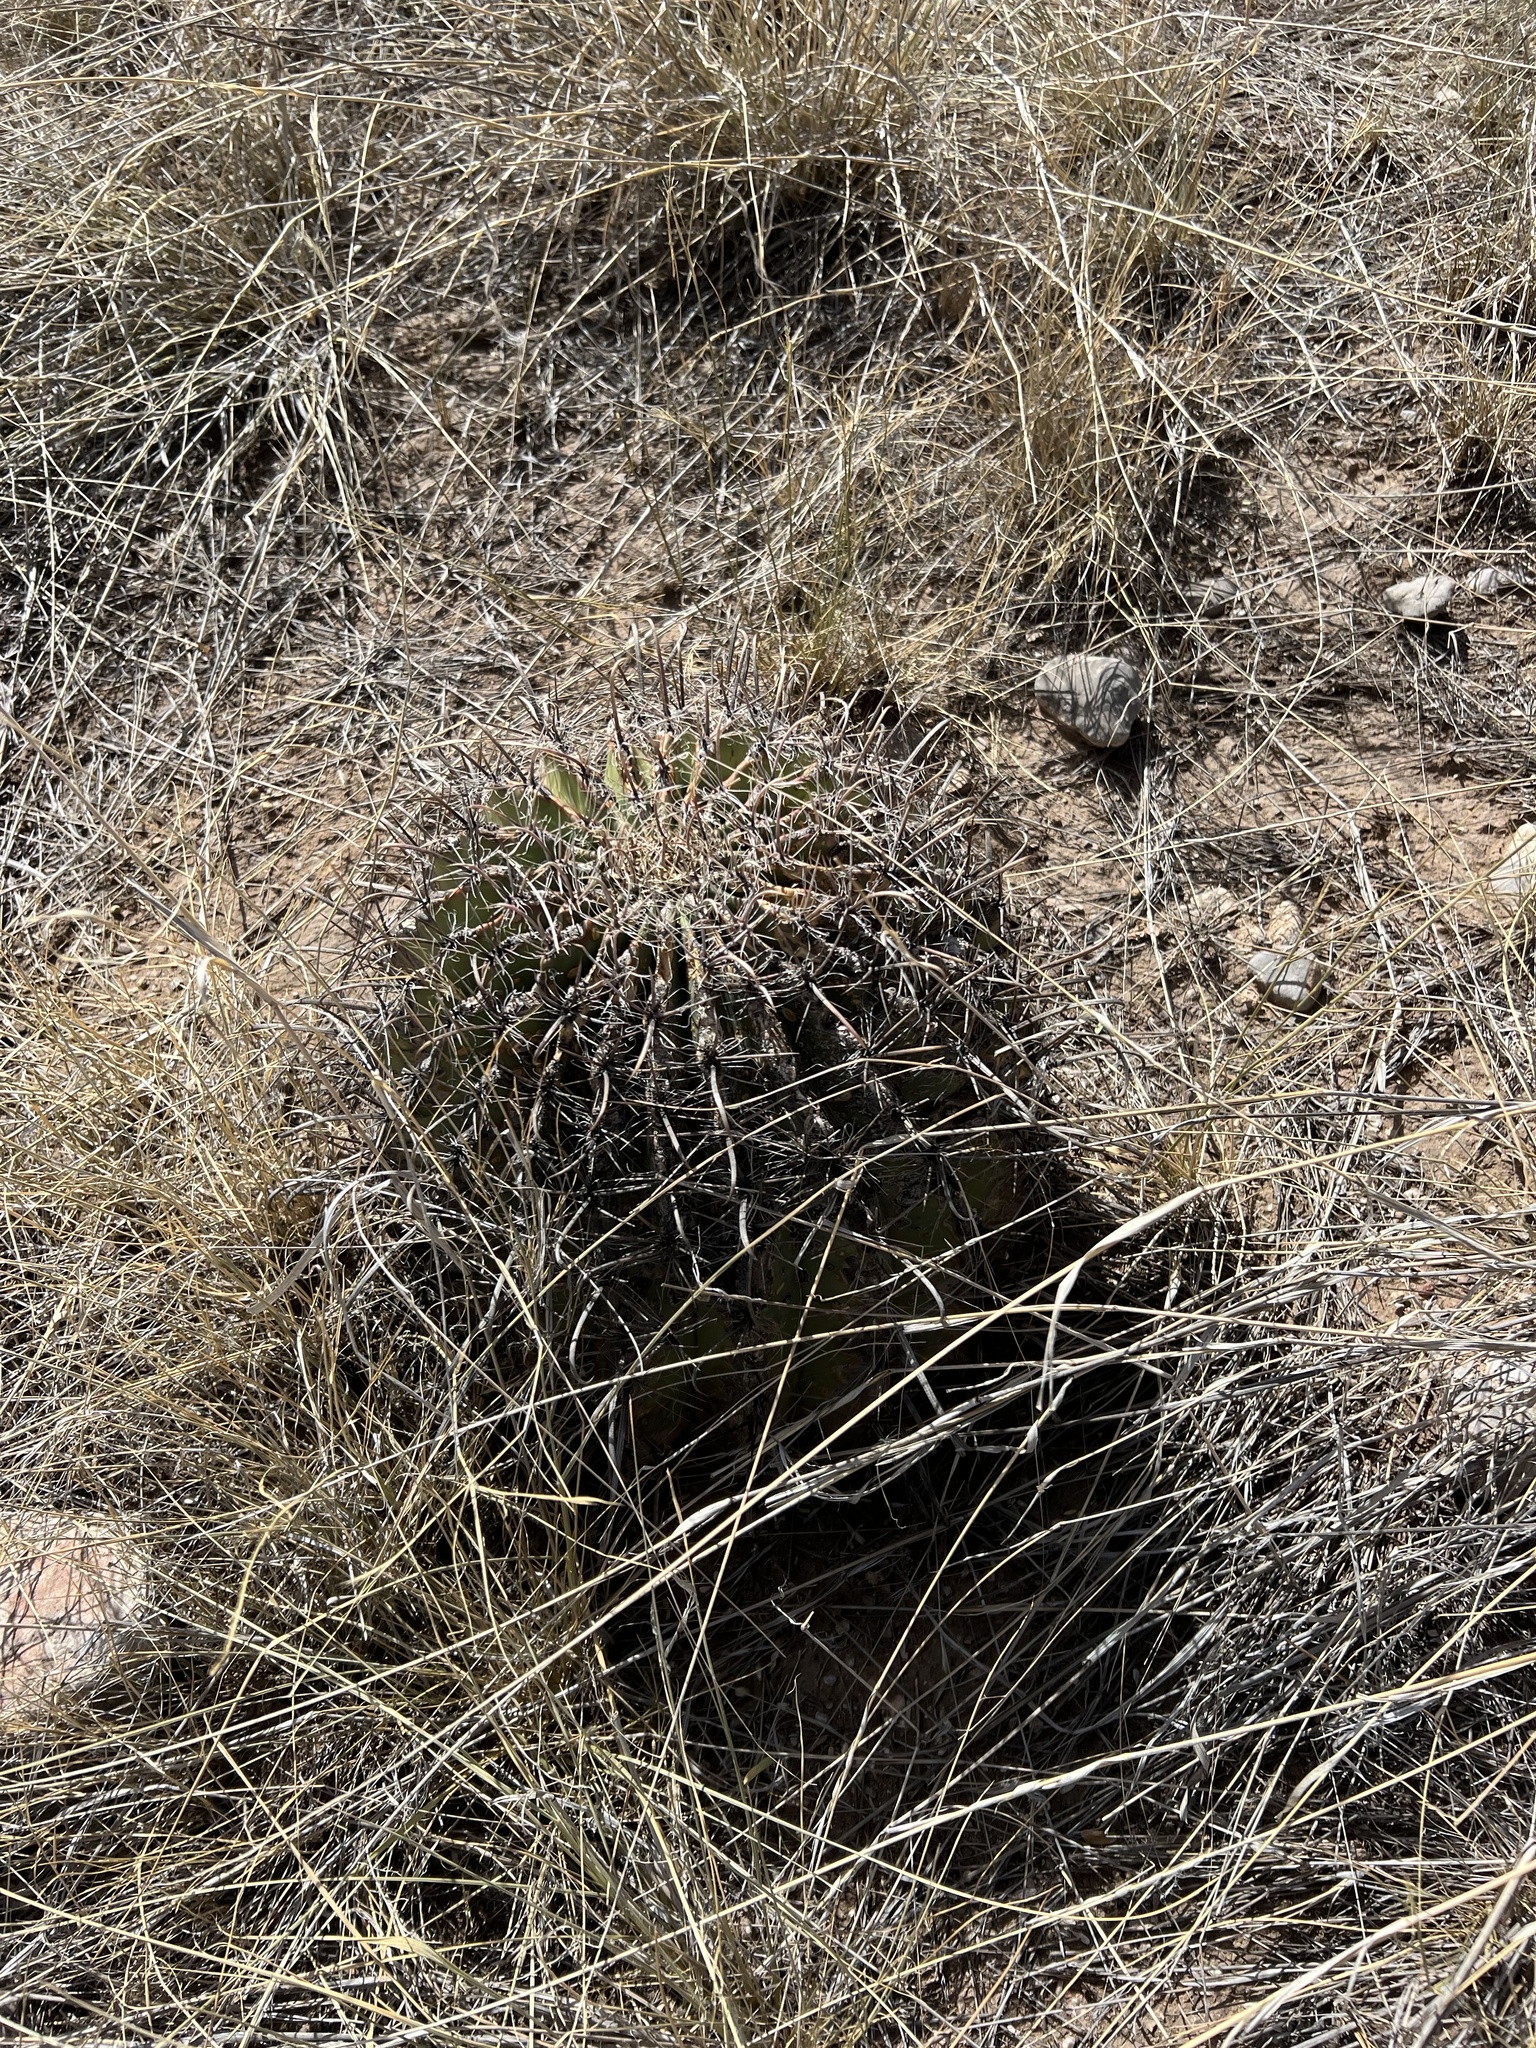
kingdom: Plantae
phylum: Tracheophyta
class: Magnoliopsida
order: Caryophyllales
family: Cactaceae
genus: Ferocactus
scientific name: Ferocactus wislizeni
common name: Candy barrel cactus
